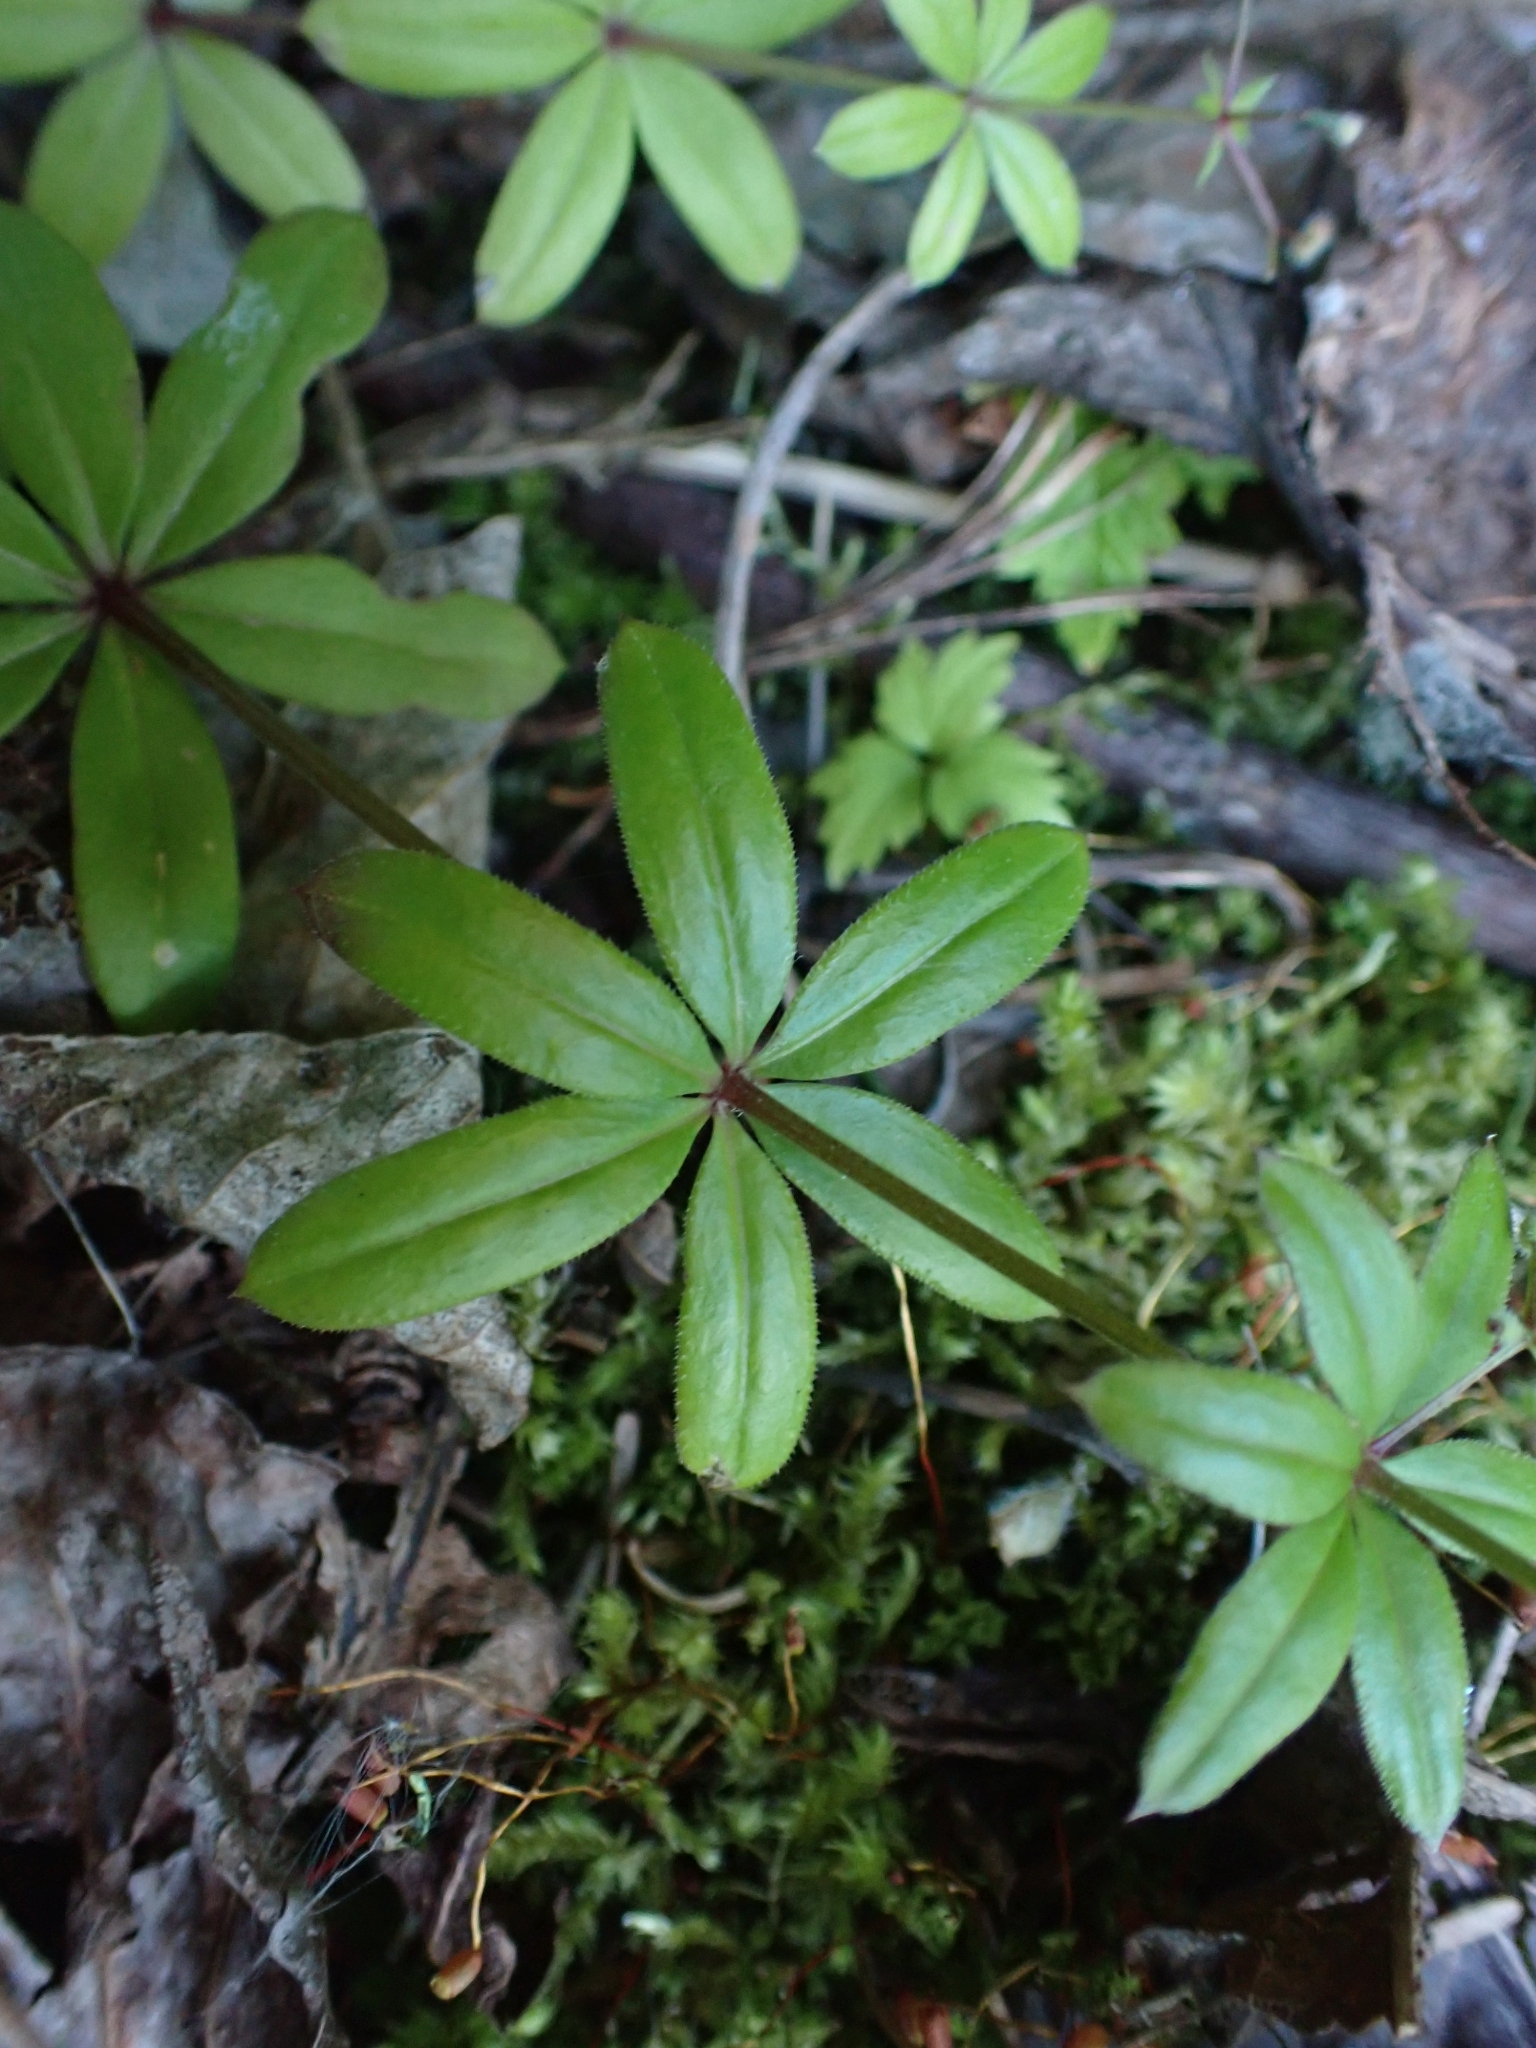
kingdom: Plantae
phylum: Tracheophyta
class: Magnoliopsida
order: Gentianales
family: Rubiaceae
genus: Galium
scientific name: Galium triflorum
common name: Fragrant bedstraw
